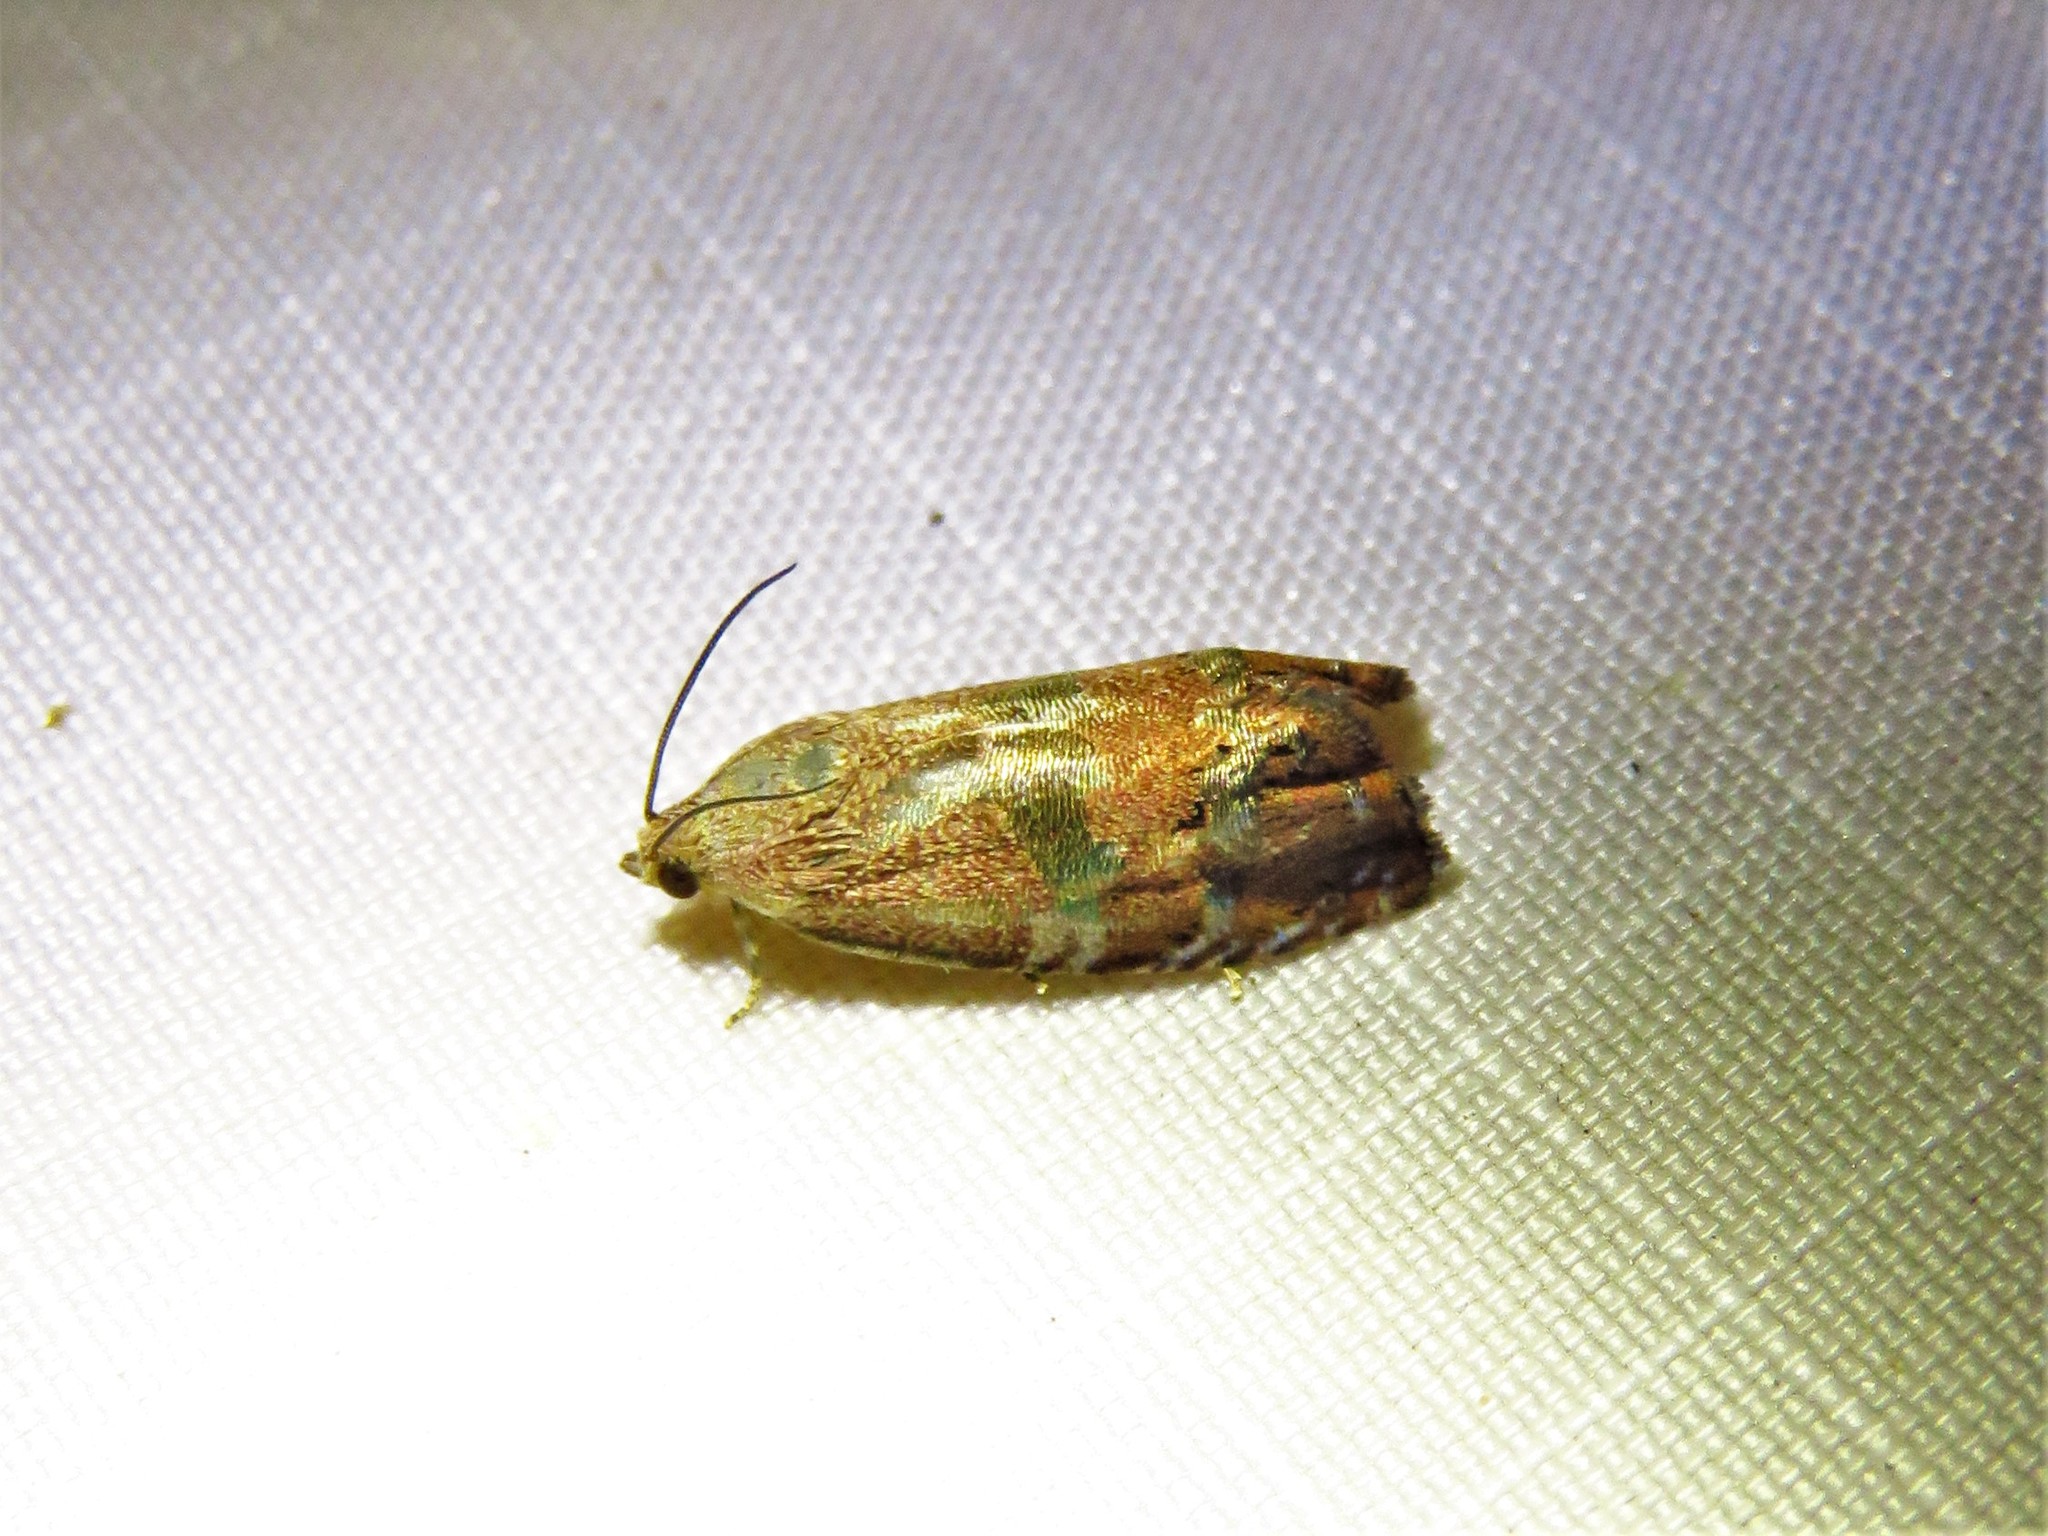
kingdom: Animalia
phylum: Arthropoda
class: Insecta
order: Lepidoptera
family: Tortricidae
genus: Cydia
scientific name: Cydia latiferreana
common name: Filbertworm moth
